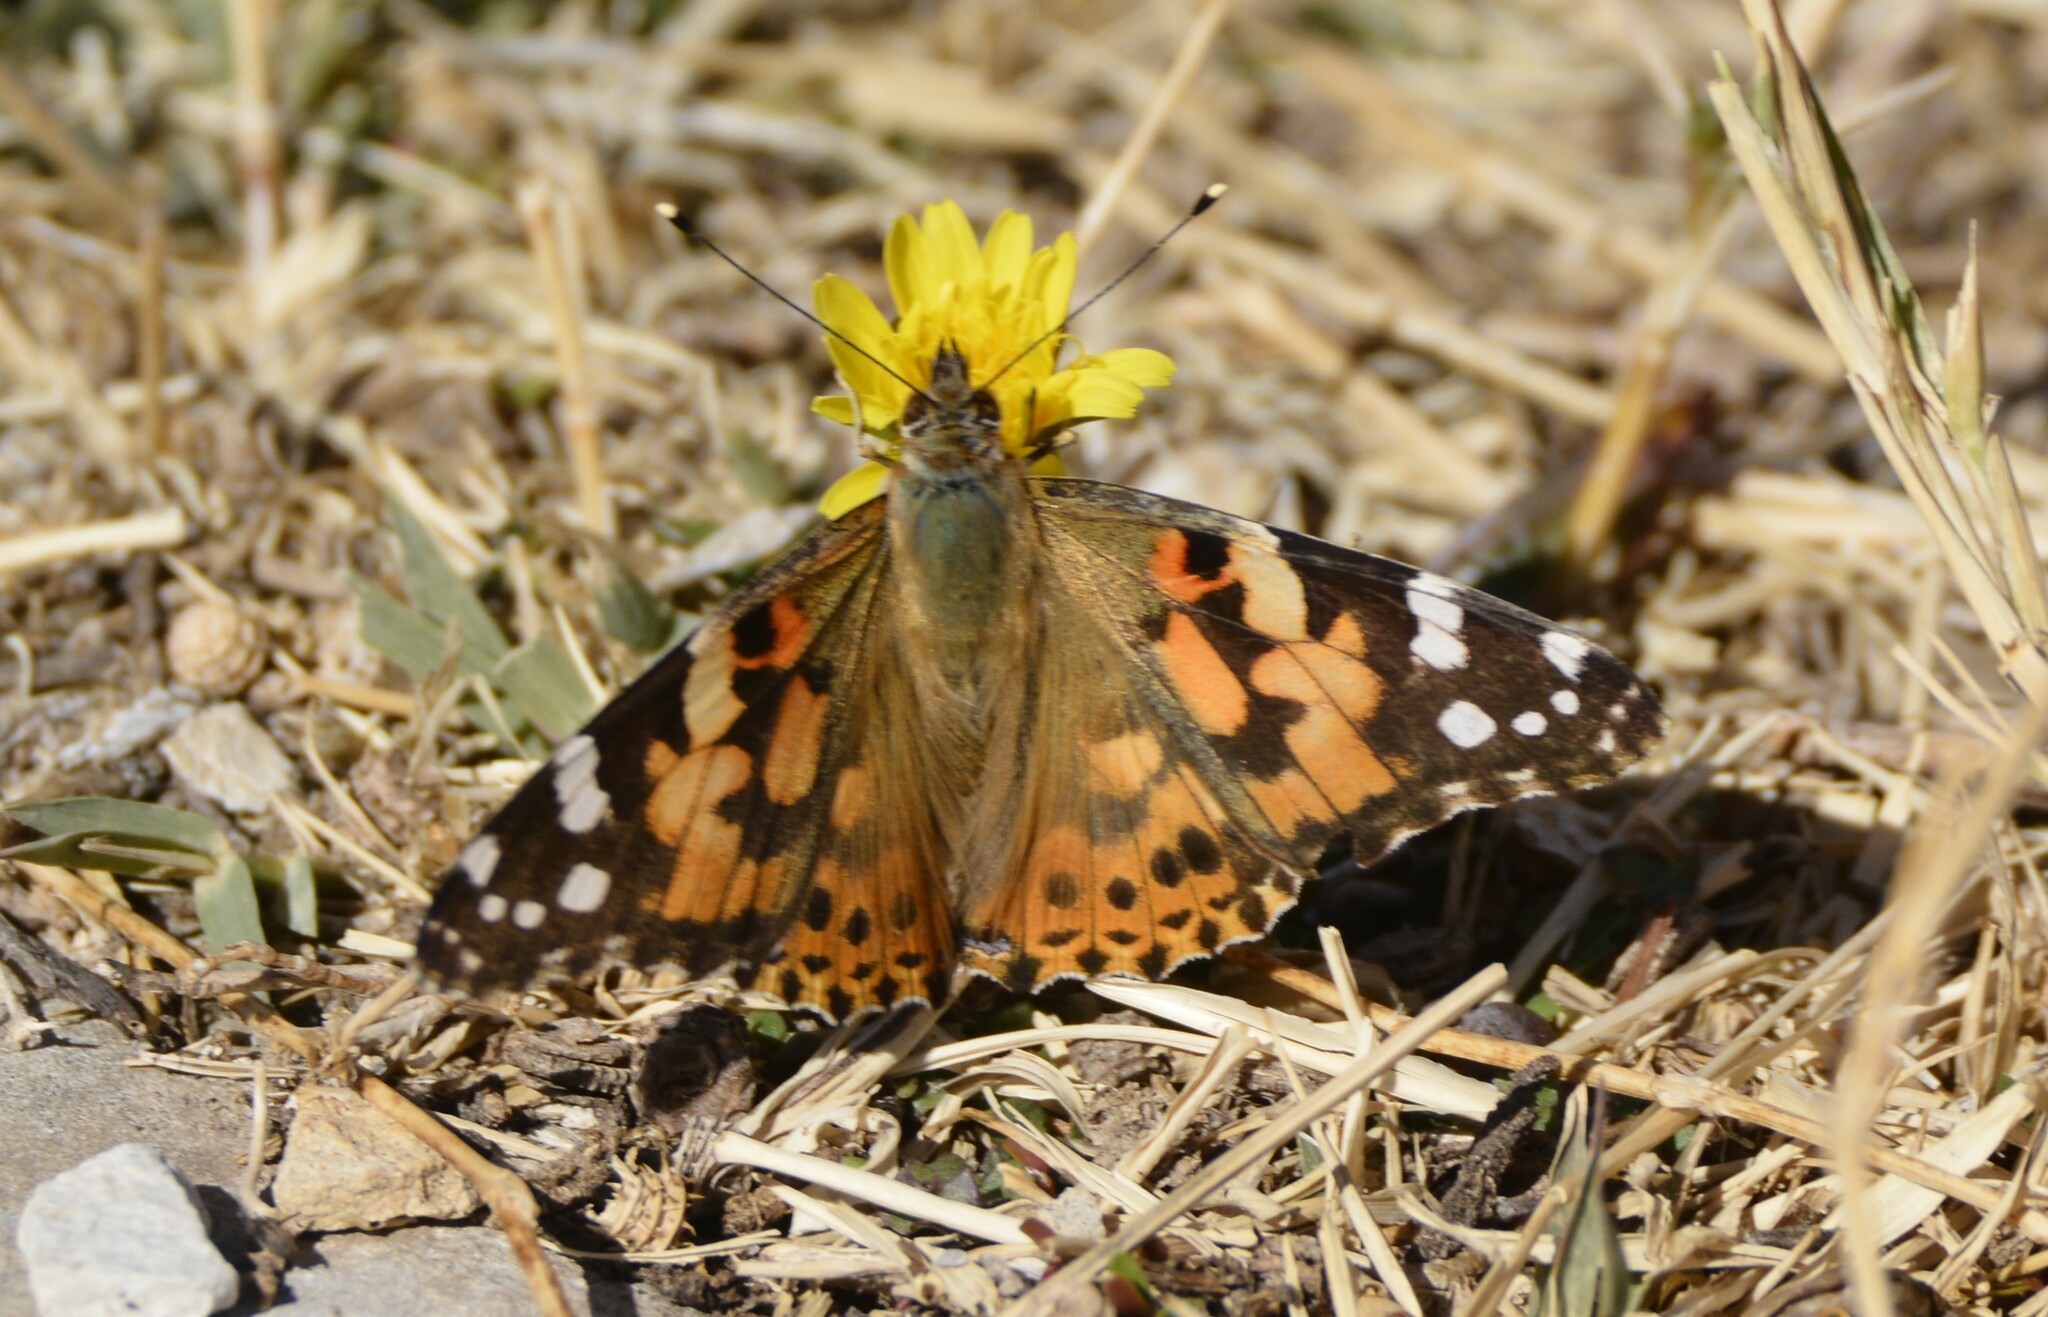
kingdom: Animalia
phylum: Arthropoda
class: Insecta
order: Lepidoptera
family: Nymphalidae
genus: Vanessa
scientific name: Vanessa cardui
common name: Painted lady
